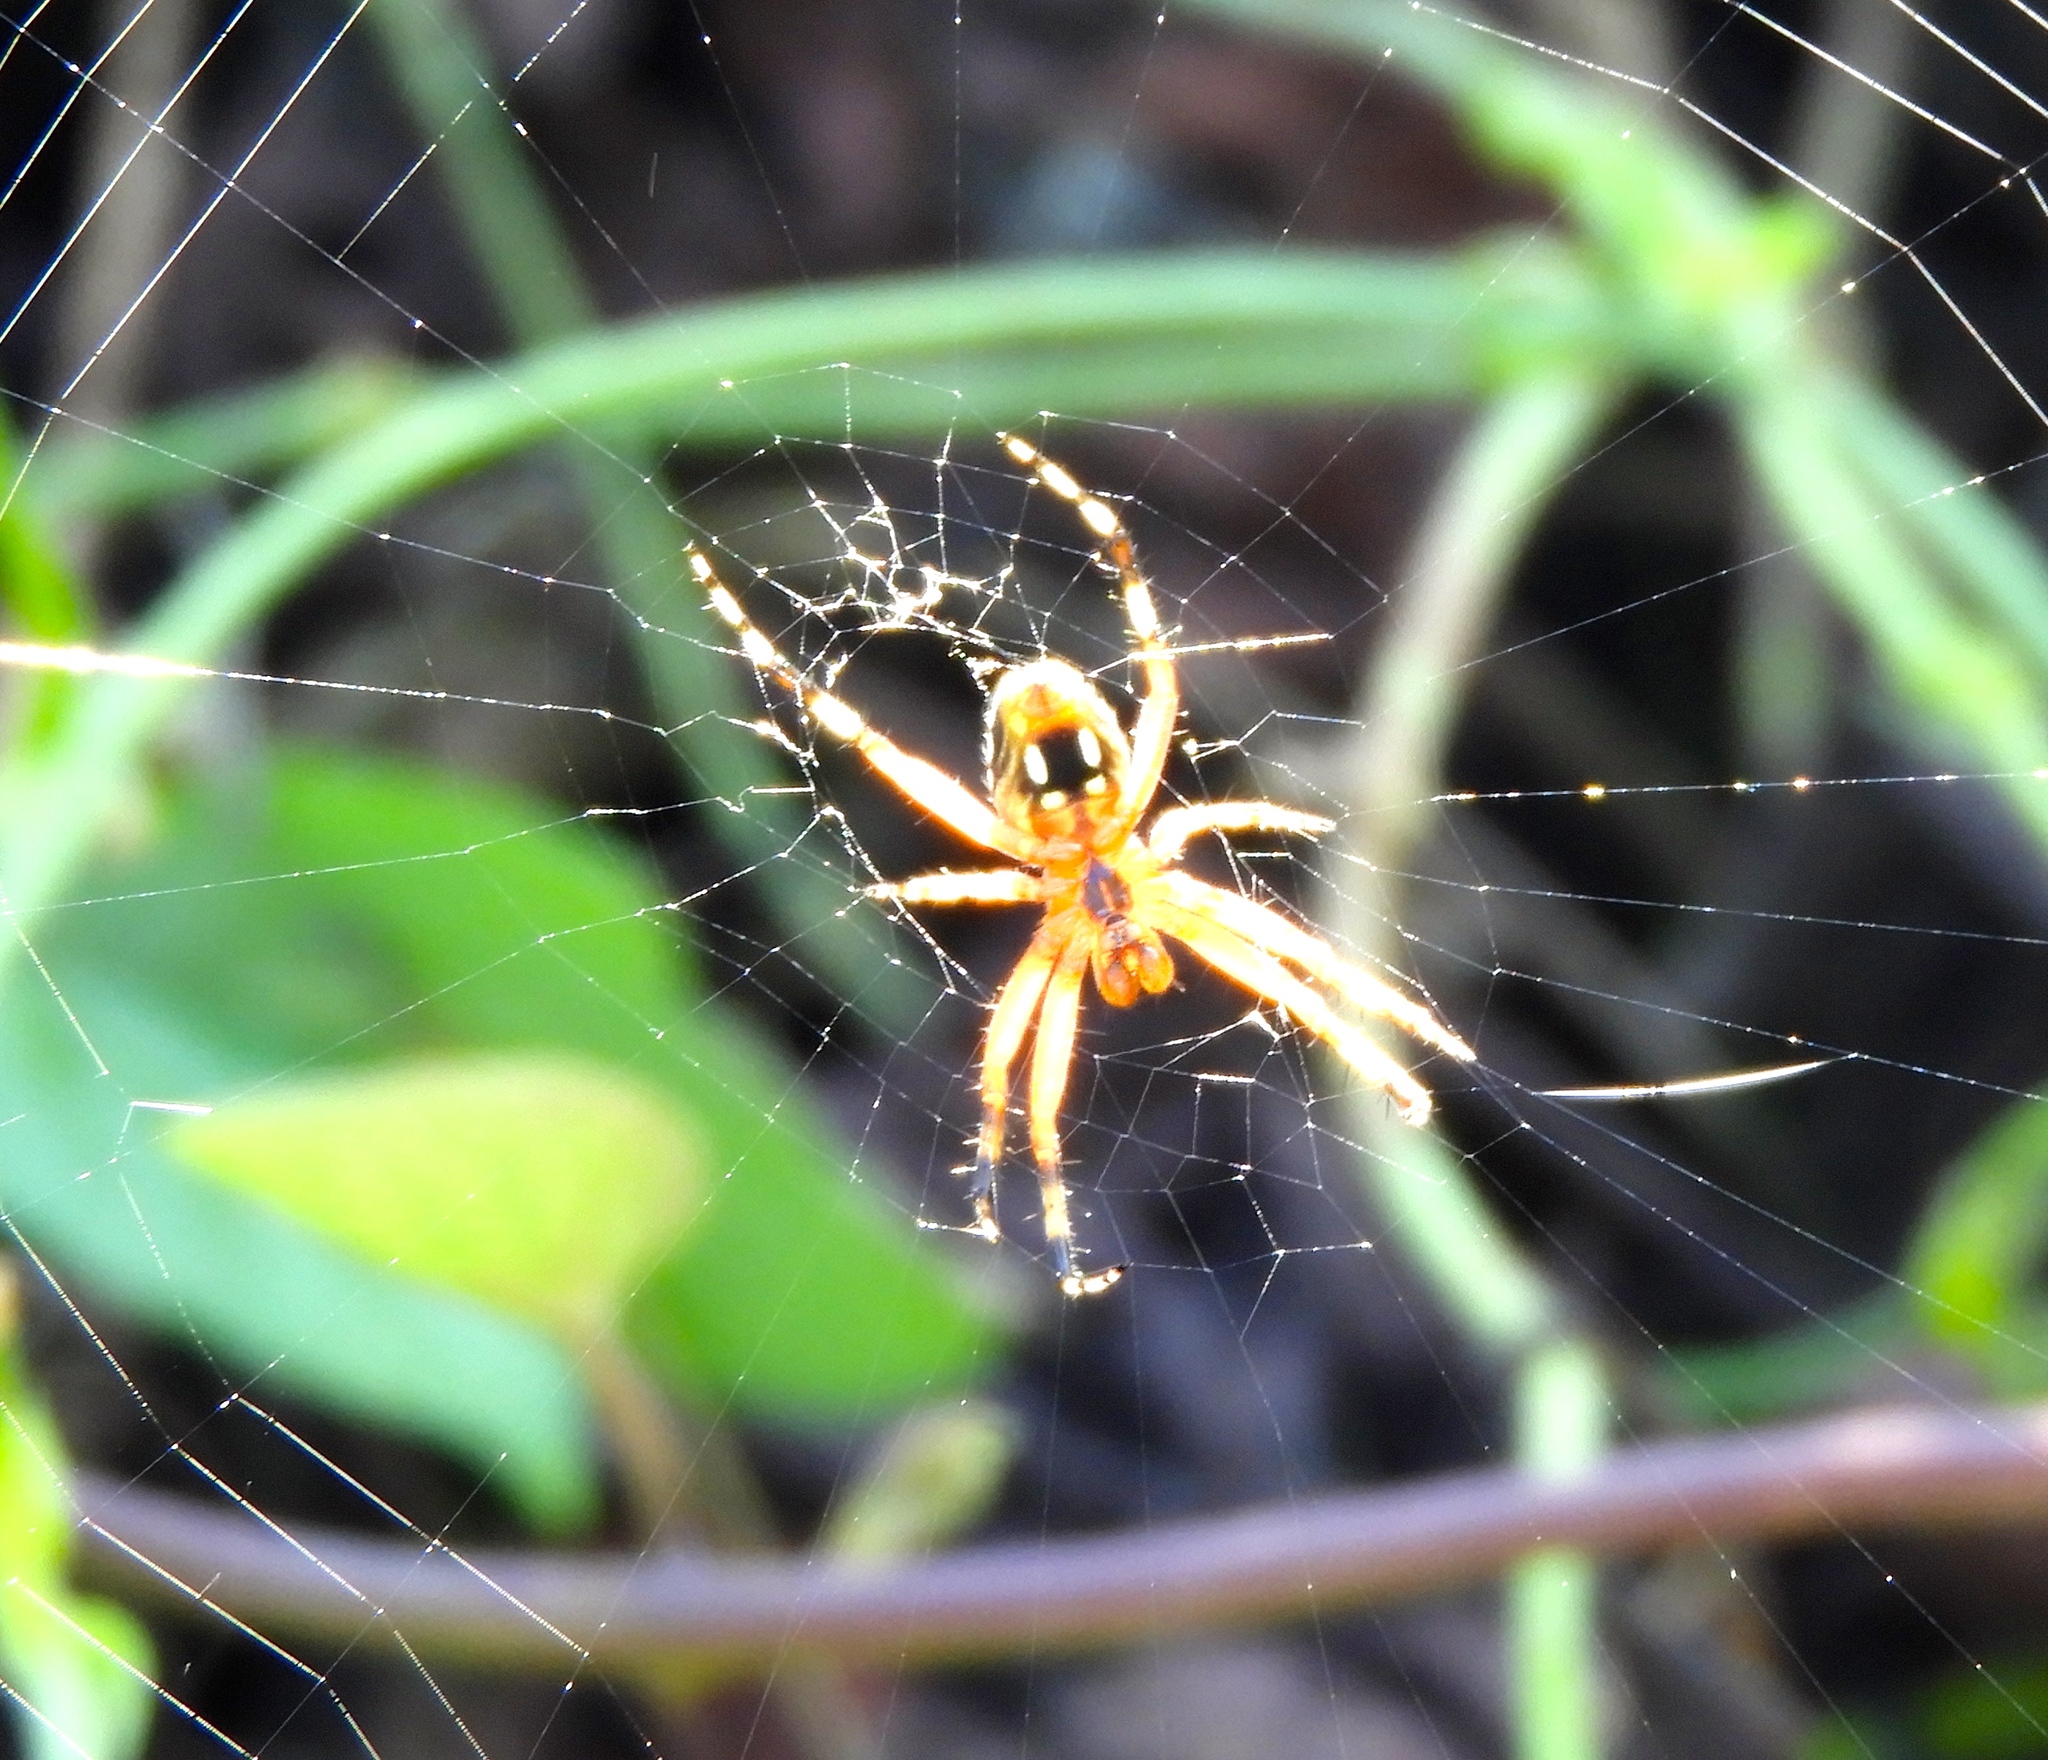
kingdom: Animalia
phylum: Arthropoda
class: Arachnida
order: Araneae
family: Araneidae
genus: Neoscona
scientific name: Neoscona
